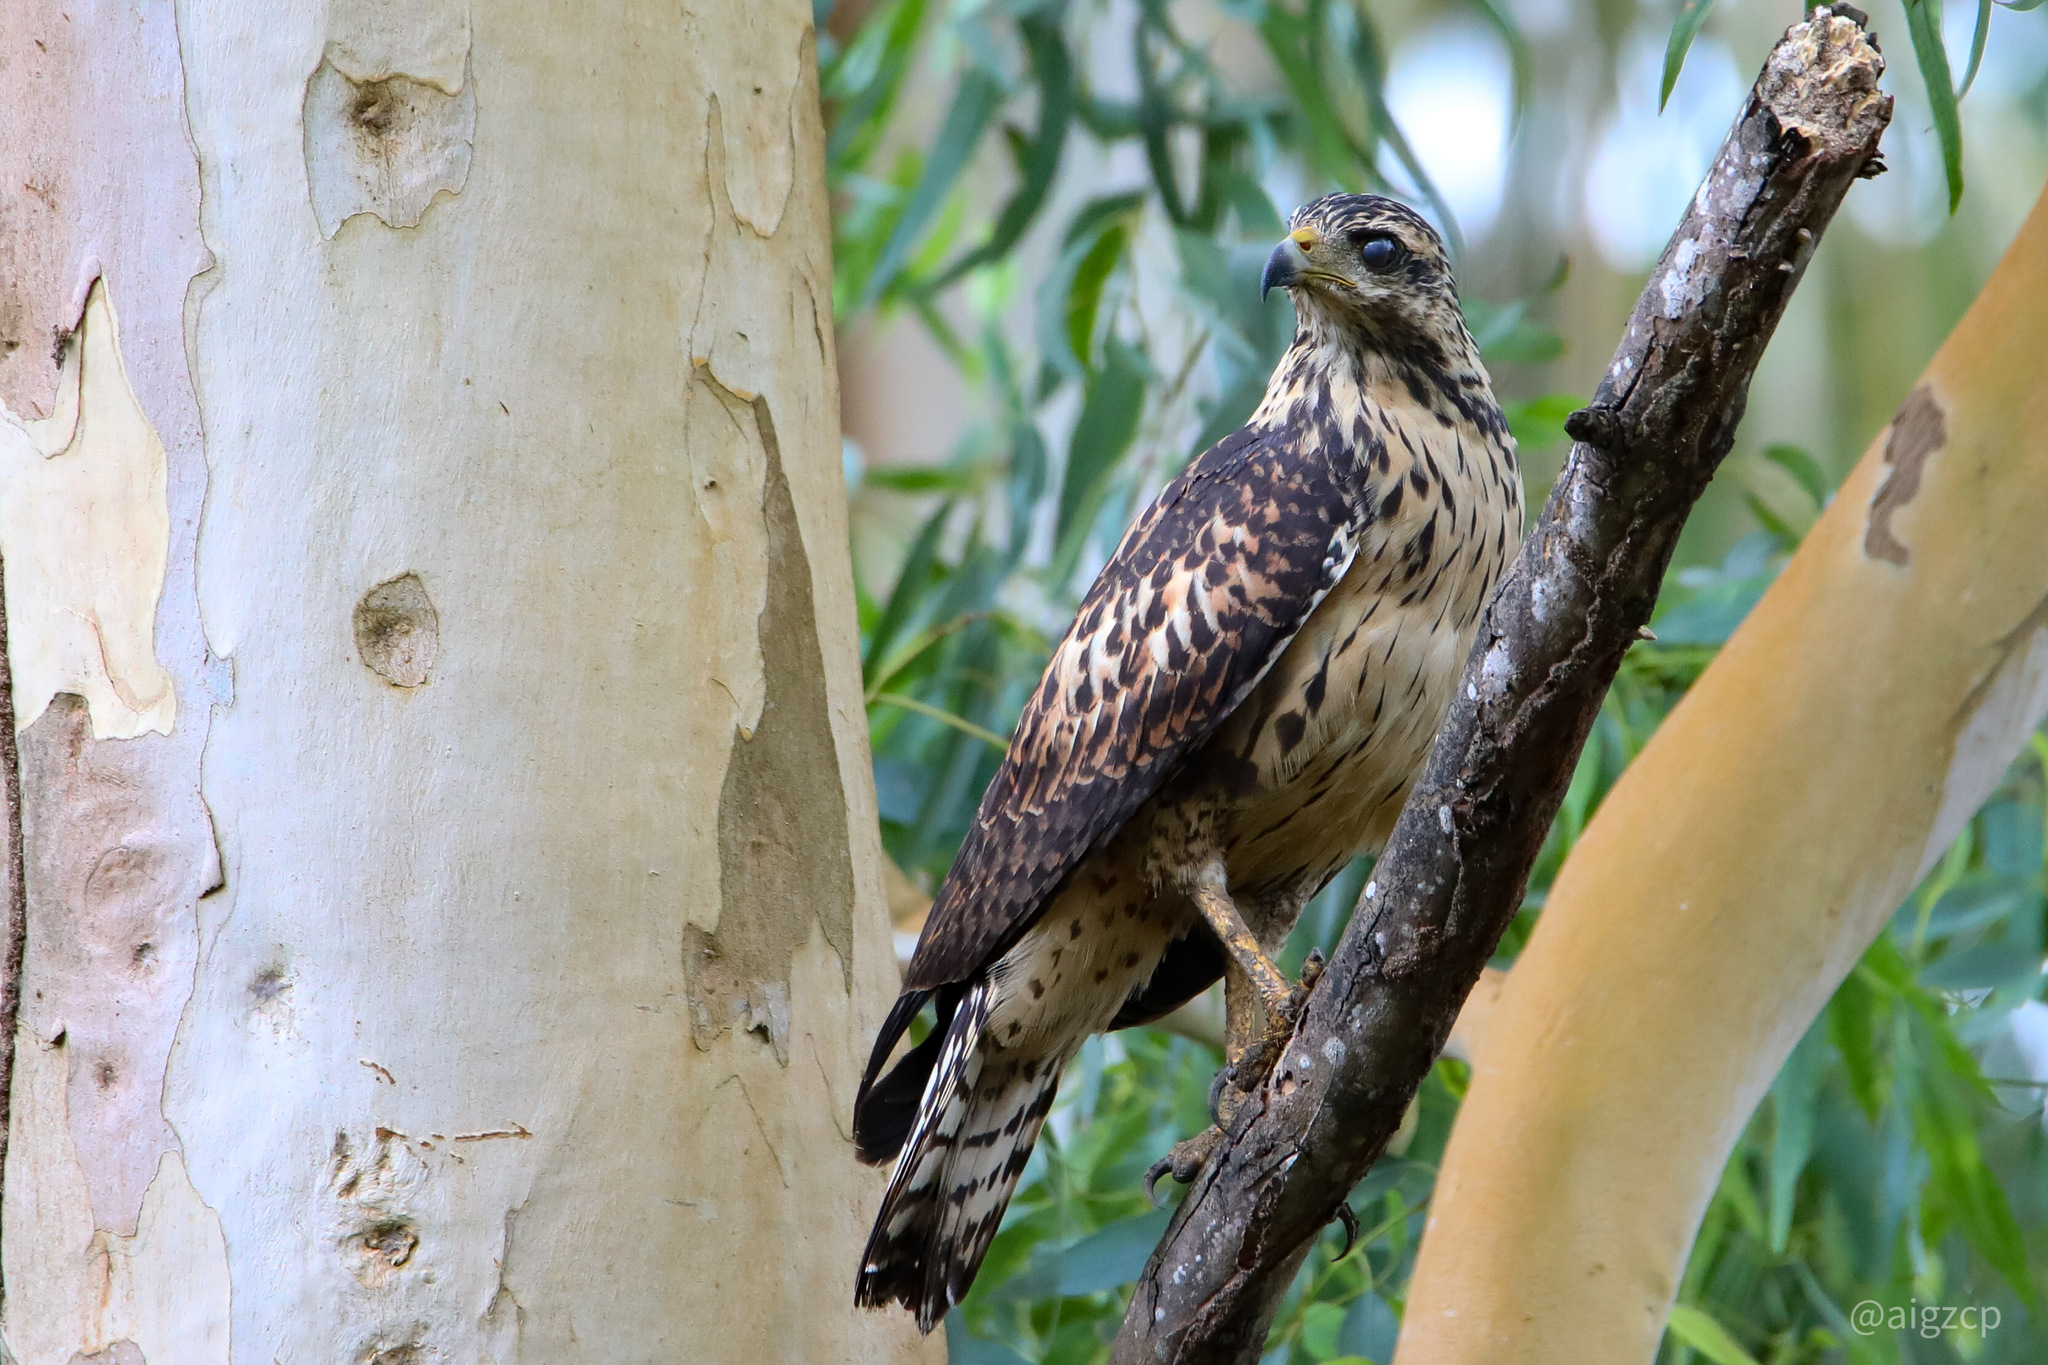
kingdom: Animalia
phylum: Chordata
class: Aves
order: Accipitriformes
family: Accipitridae
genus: Buteogallus
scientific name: Buteogallus anthracinus
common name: Common black hawk
